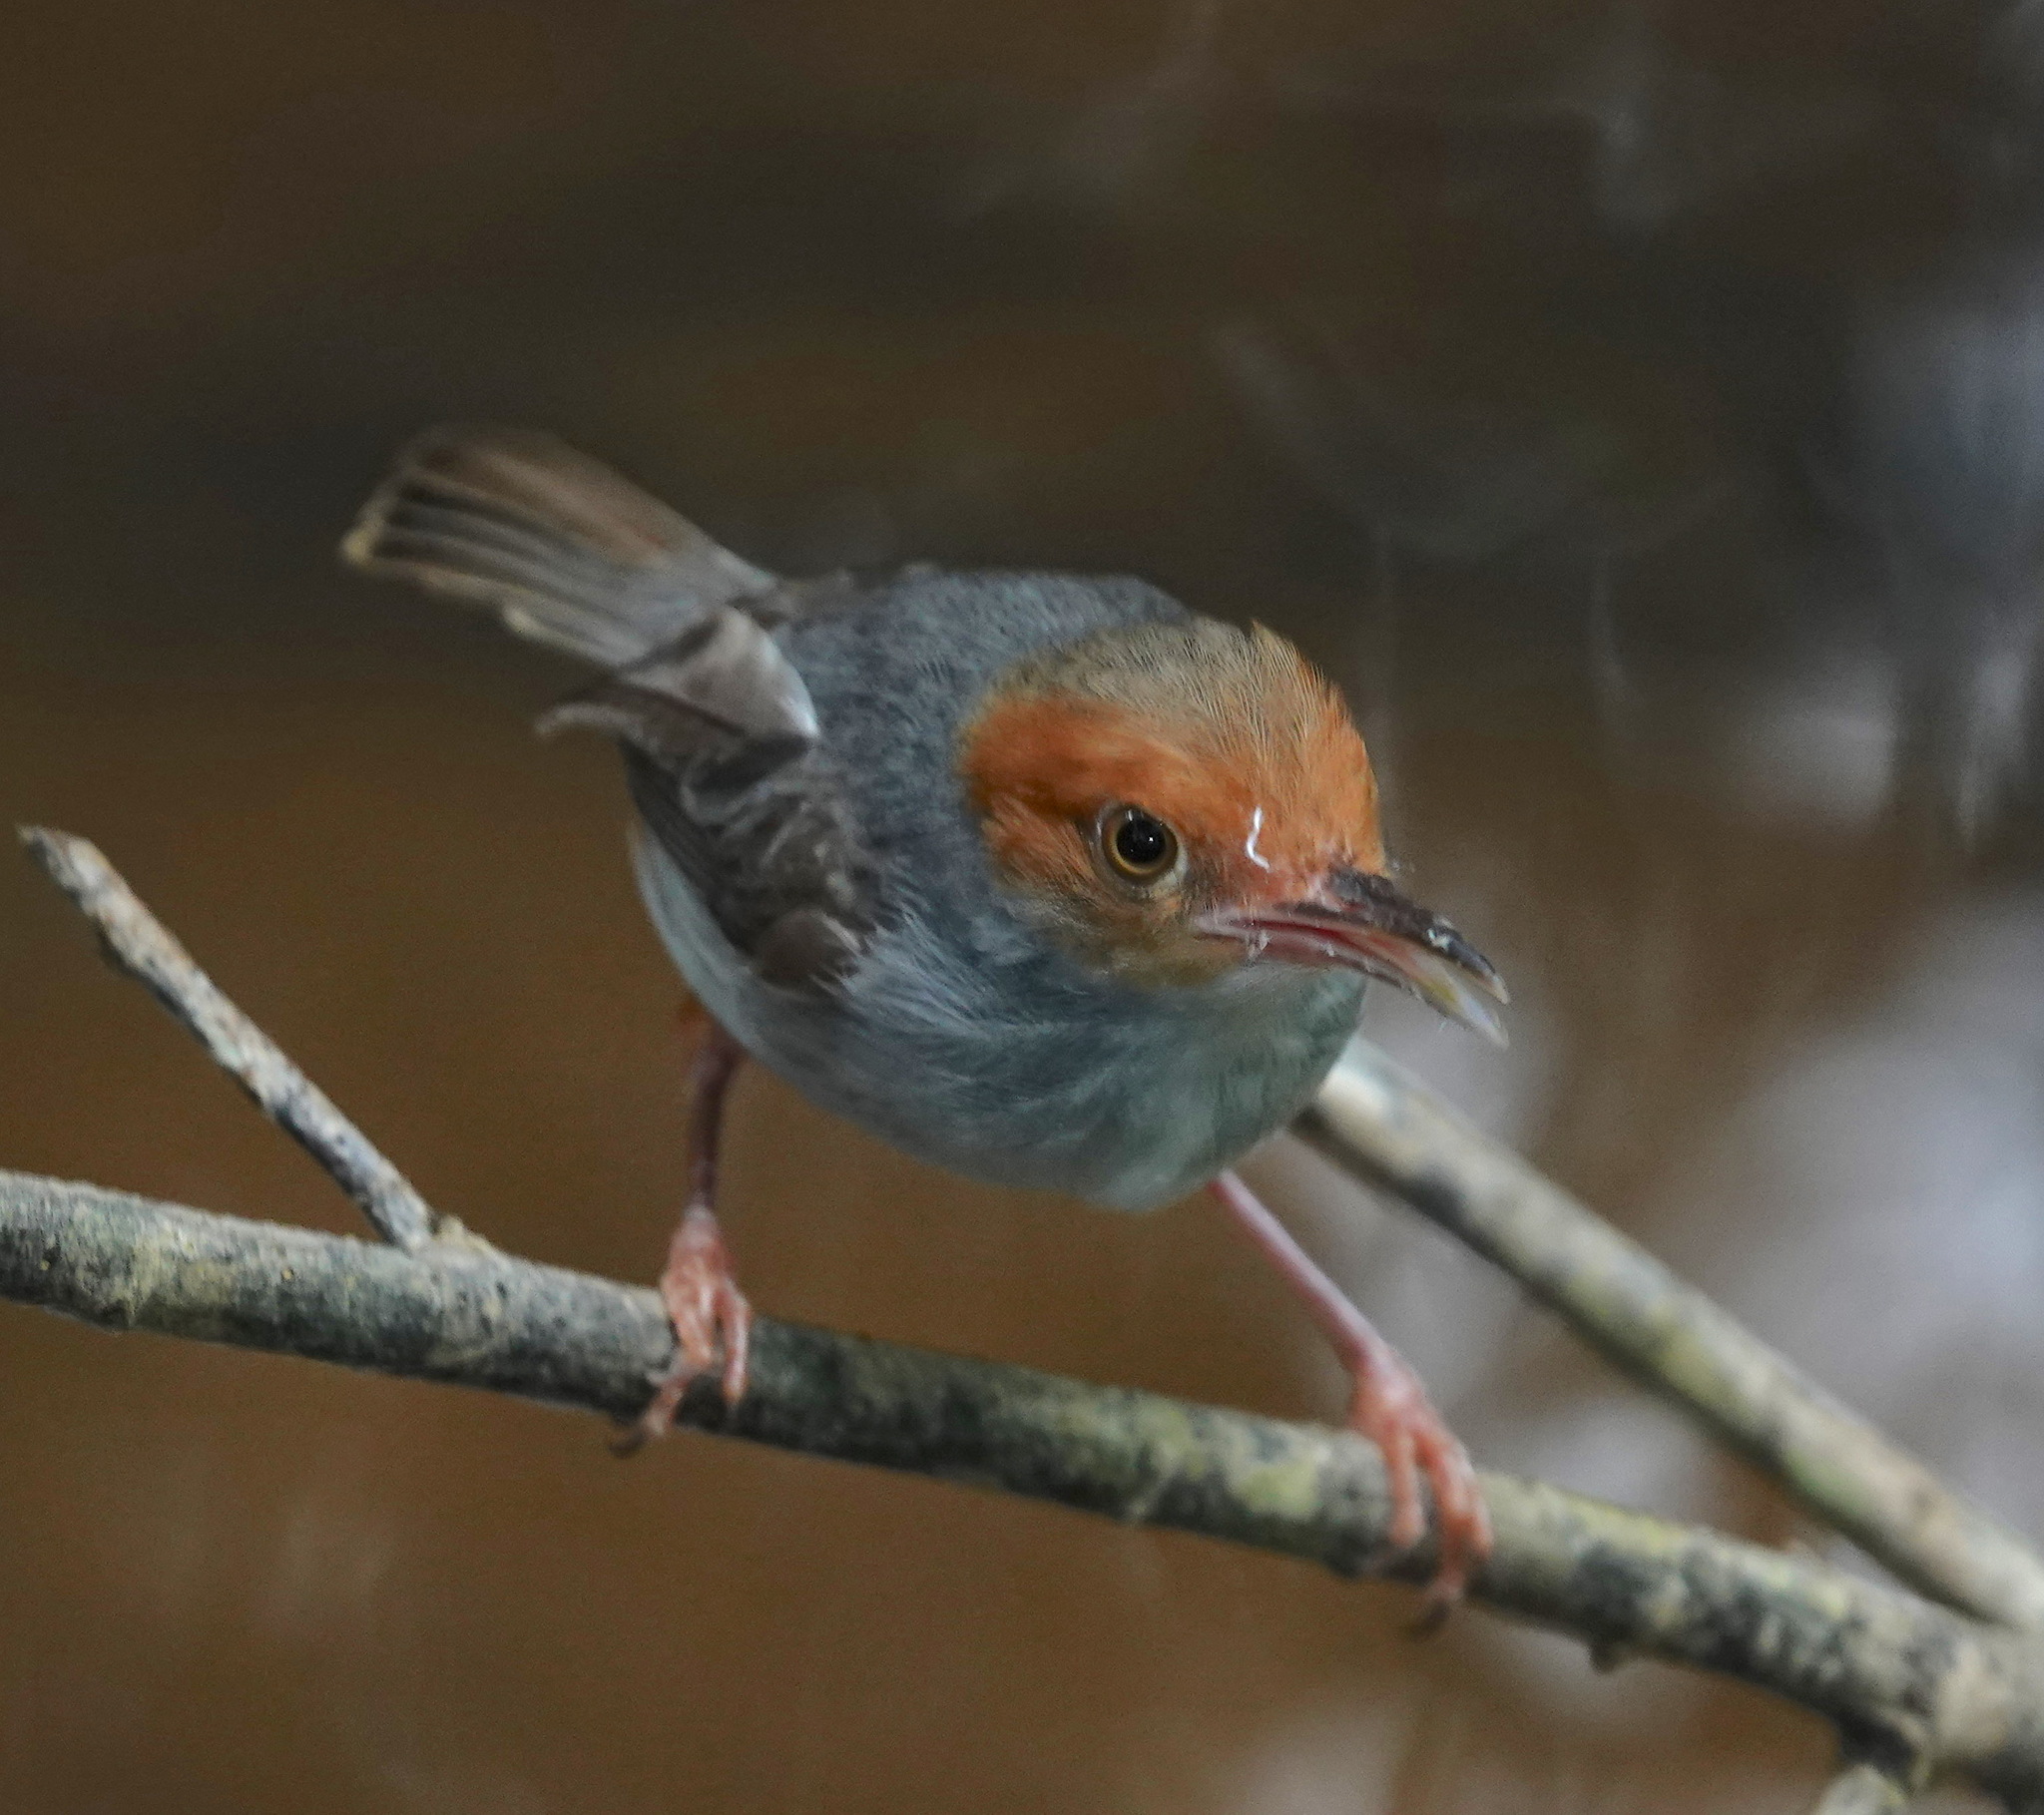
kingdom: Animalia
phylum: Chordata
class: Aves
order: Passeriformes
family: Cisticolidae
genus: Orthotomus
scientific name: Orthotomus ruficeps
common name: Ashy tailorbird
